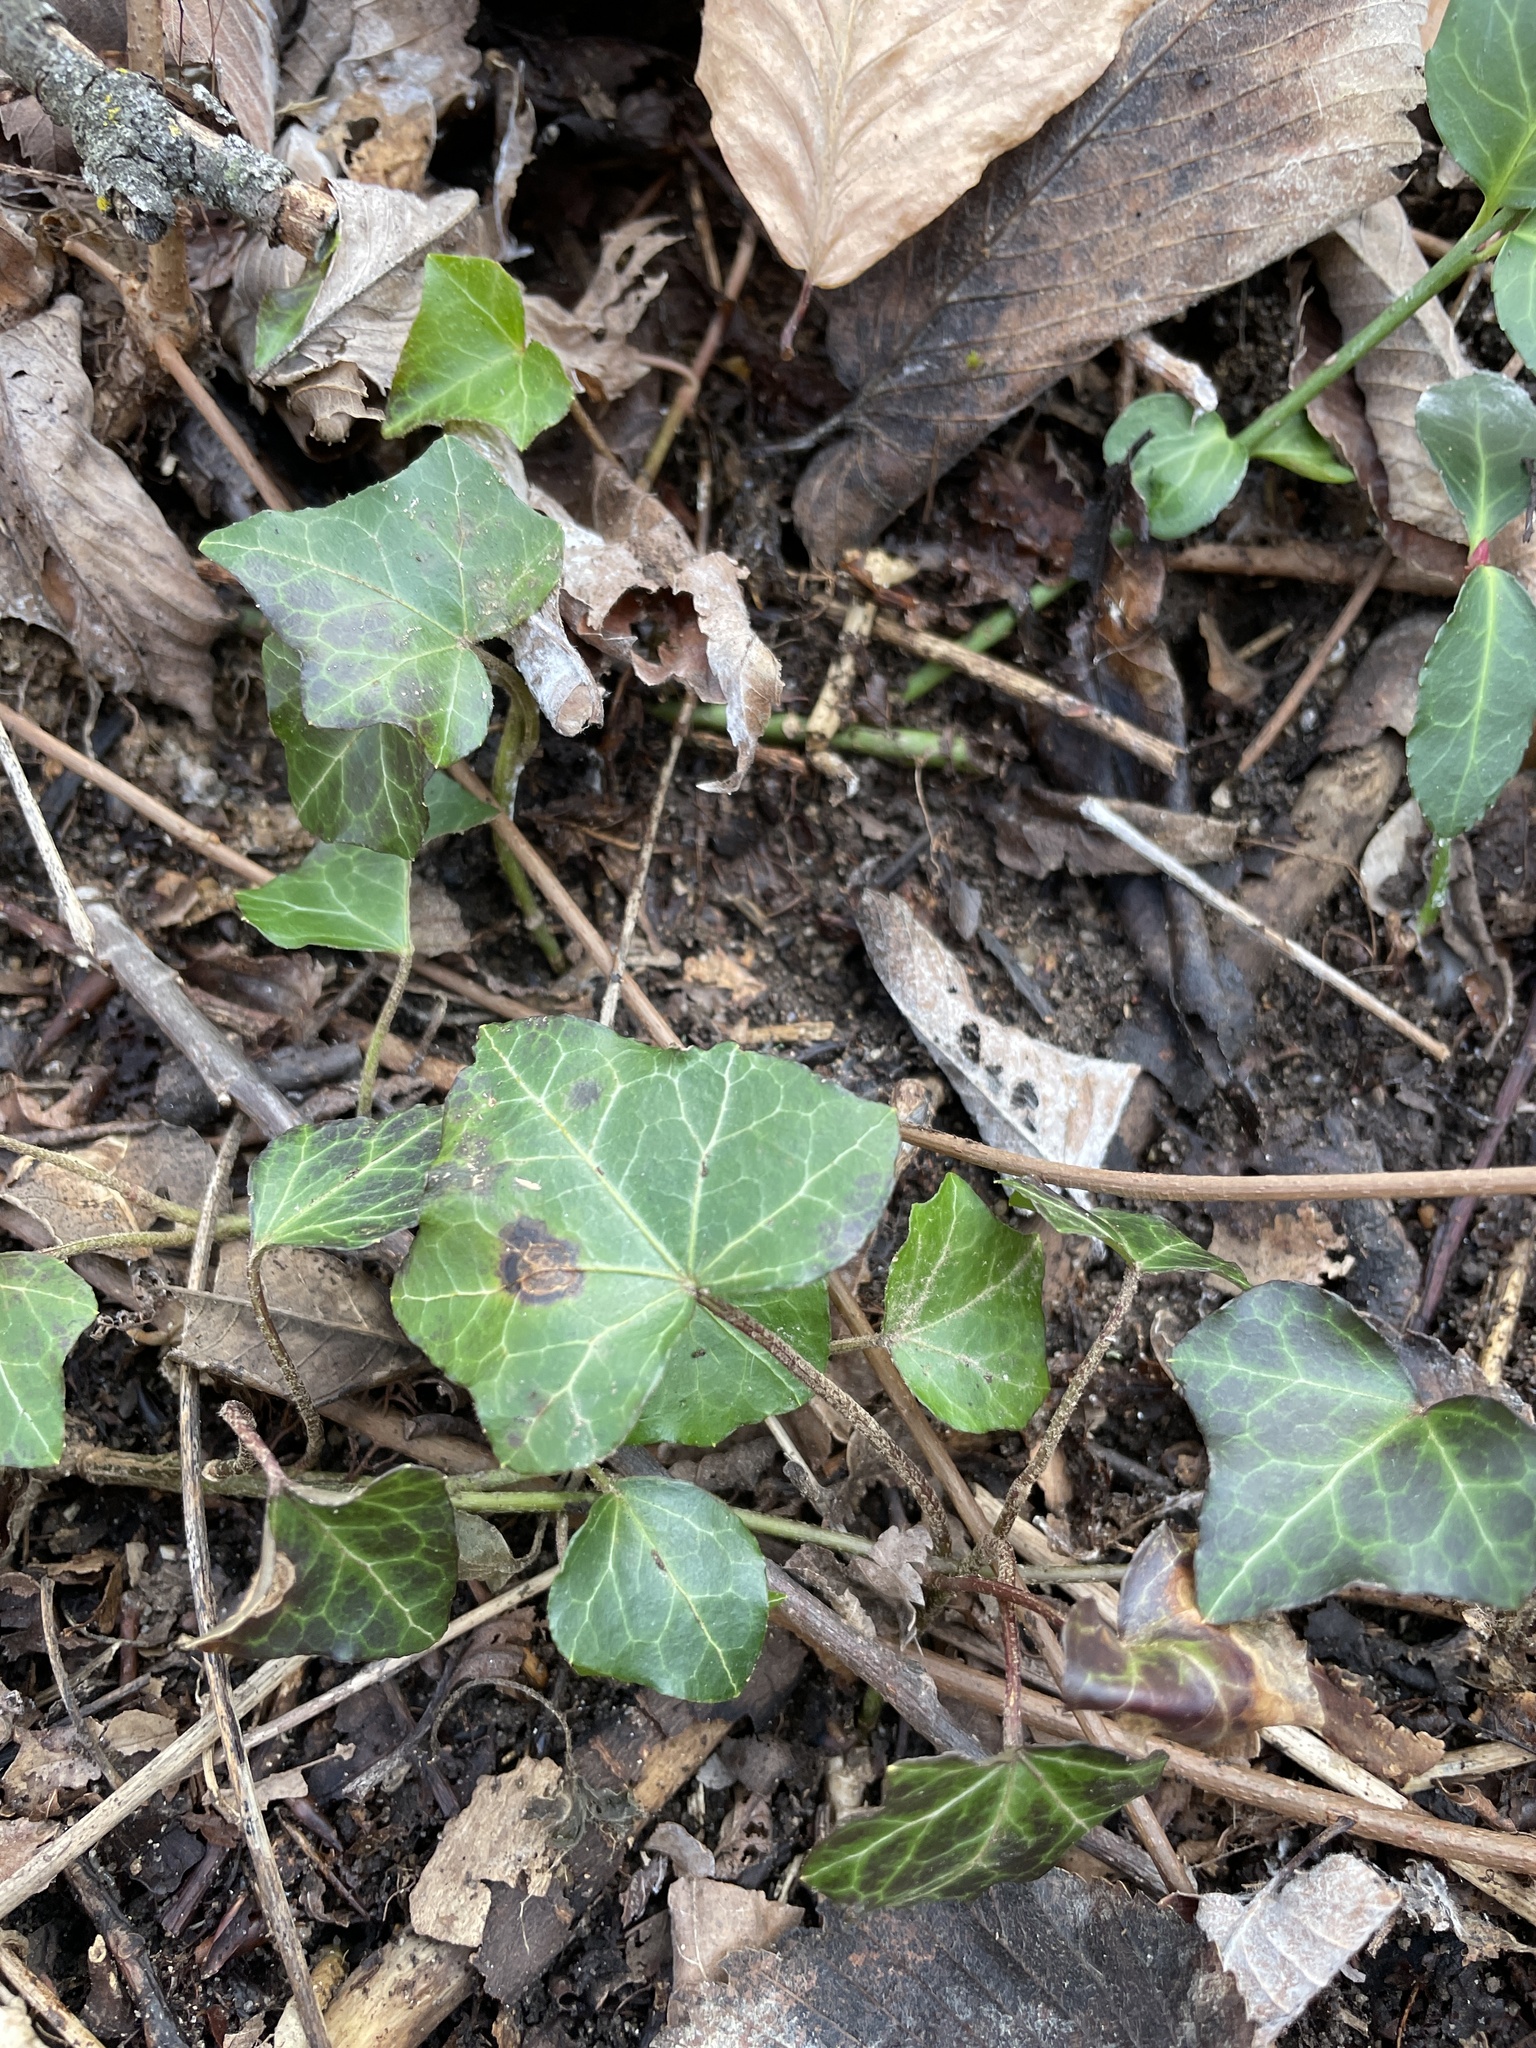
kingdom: Plantae
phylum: Tracheophyta
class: Magnoliopsida
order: Apiales
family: Araliaceae
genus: Hedera
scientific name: Hedera helix
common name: Ivy
